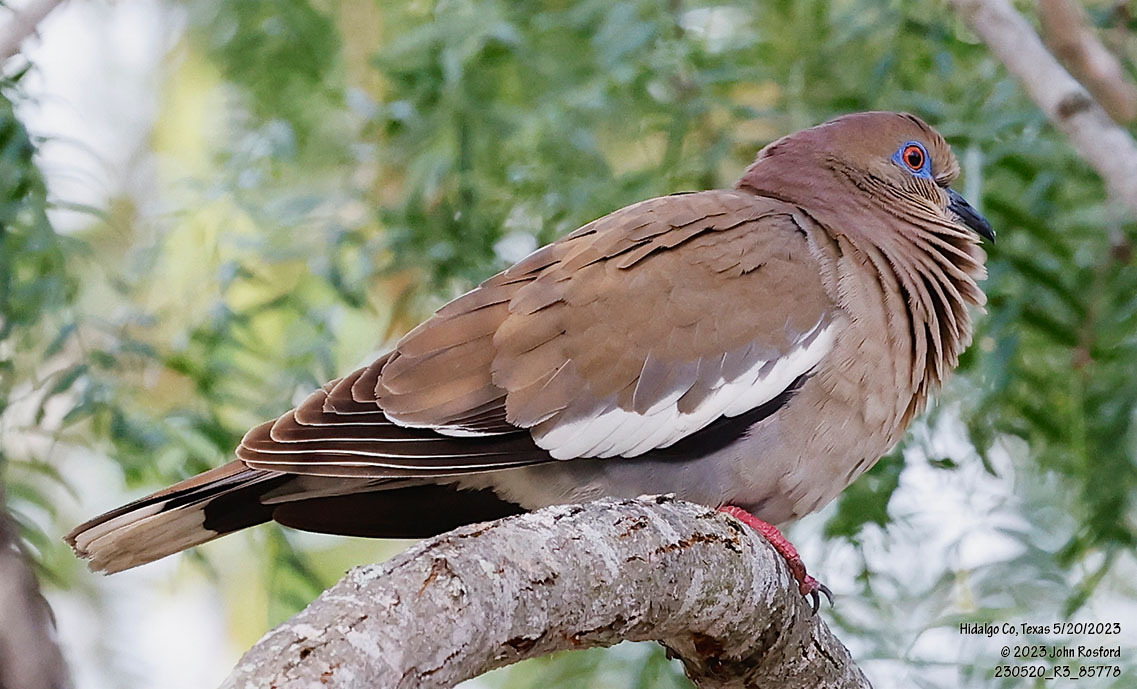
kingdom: Animalia
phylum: Chordata
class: Aves
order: Columbiformes
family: Columbidae
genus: Zenaida
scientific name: Zenaida asiatica
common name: White-winged dove
